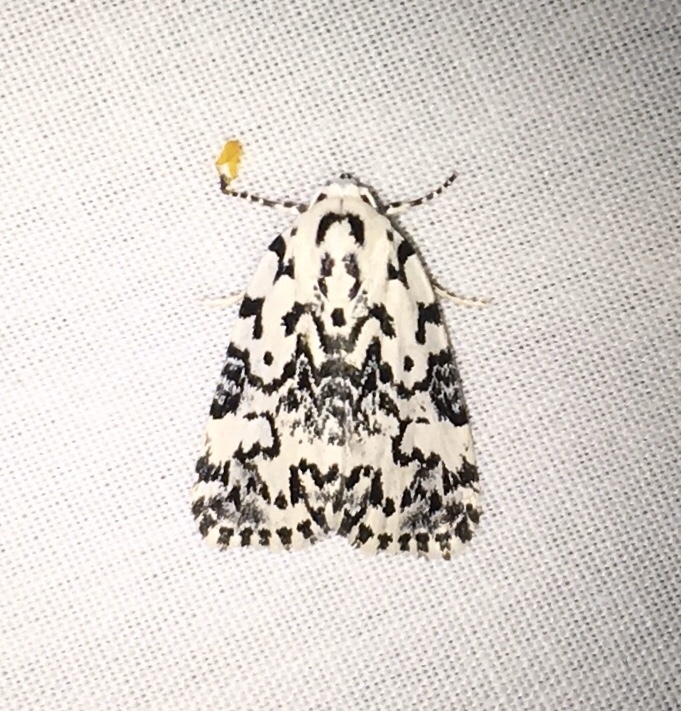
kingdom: Animalia
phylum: Arthropoda
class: Insecta
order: Lepidoptera
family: Noctuidae
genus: Polygrammate
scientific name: Polygrammate hebraeicum
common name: Hebrew moth
